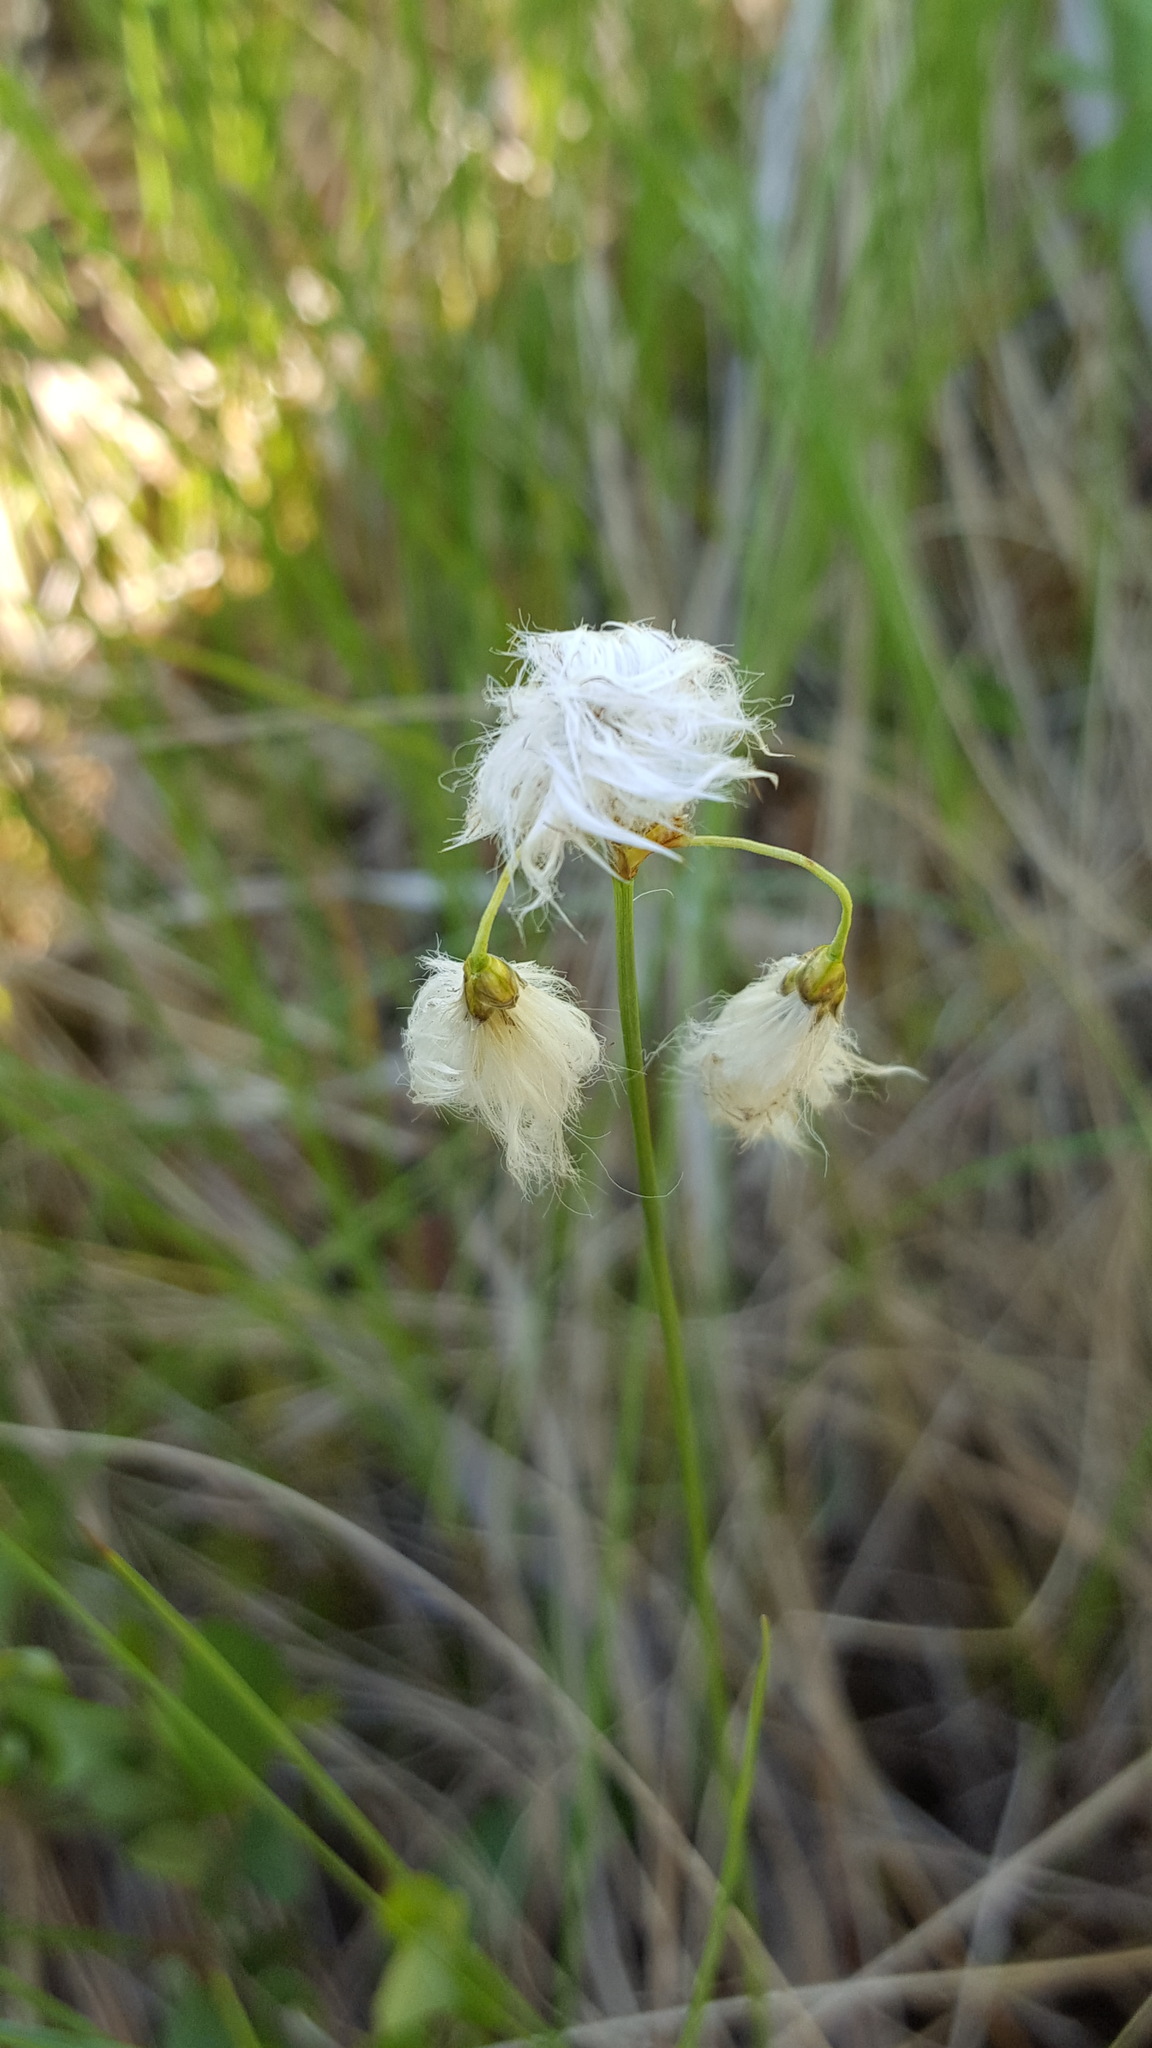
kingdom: Plantae
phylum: Tracheophyta
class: Liliopsida
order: Poales
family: Cyperaceae
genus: Eriophorum
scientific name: Eriophorum gracile
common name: Slender cottongrass
